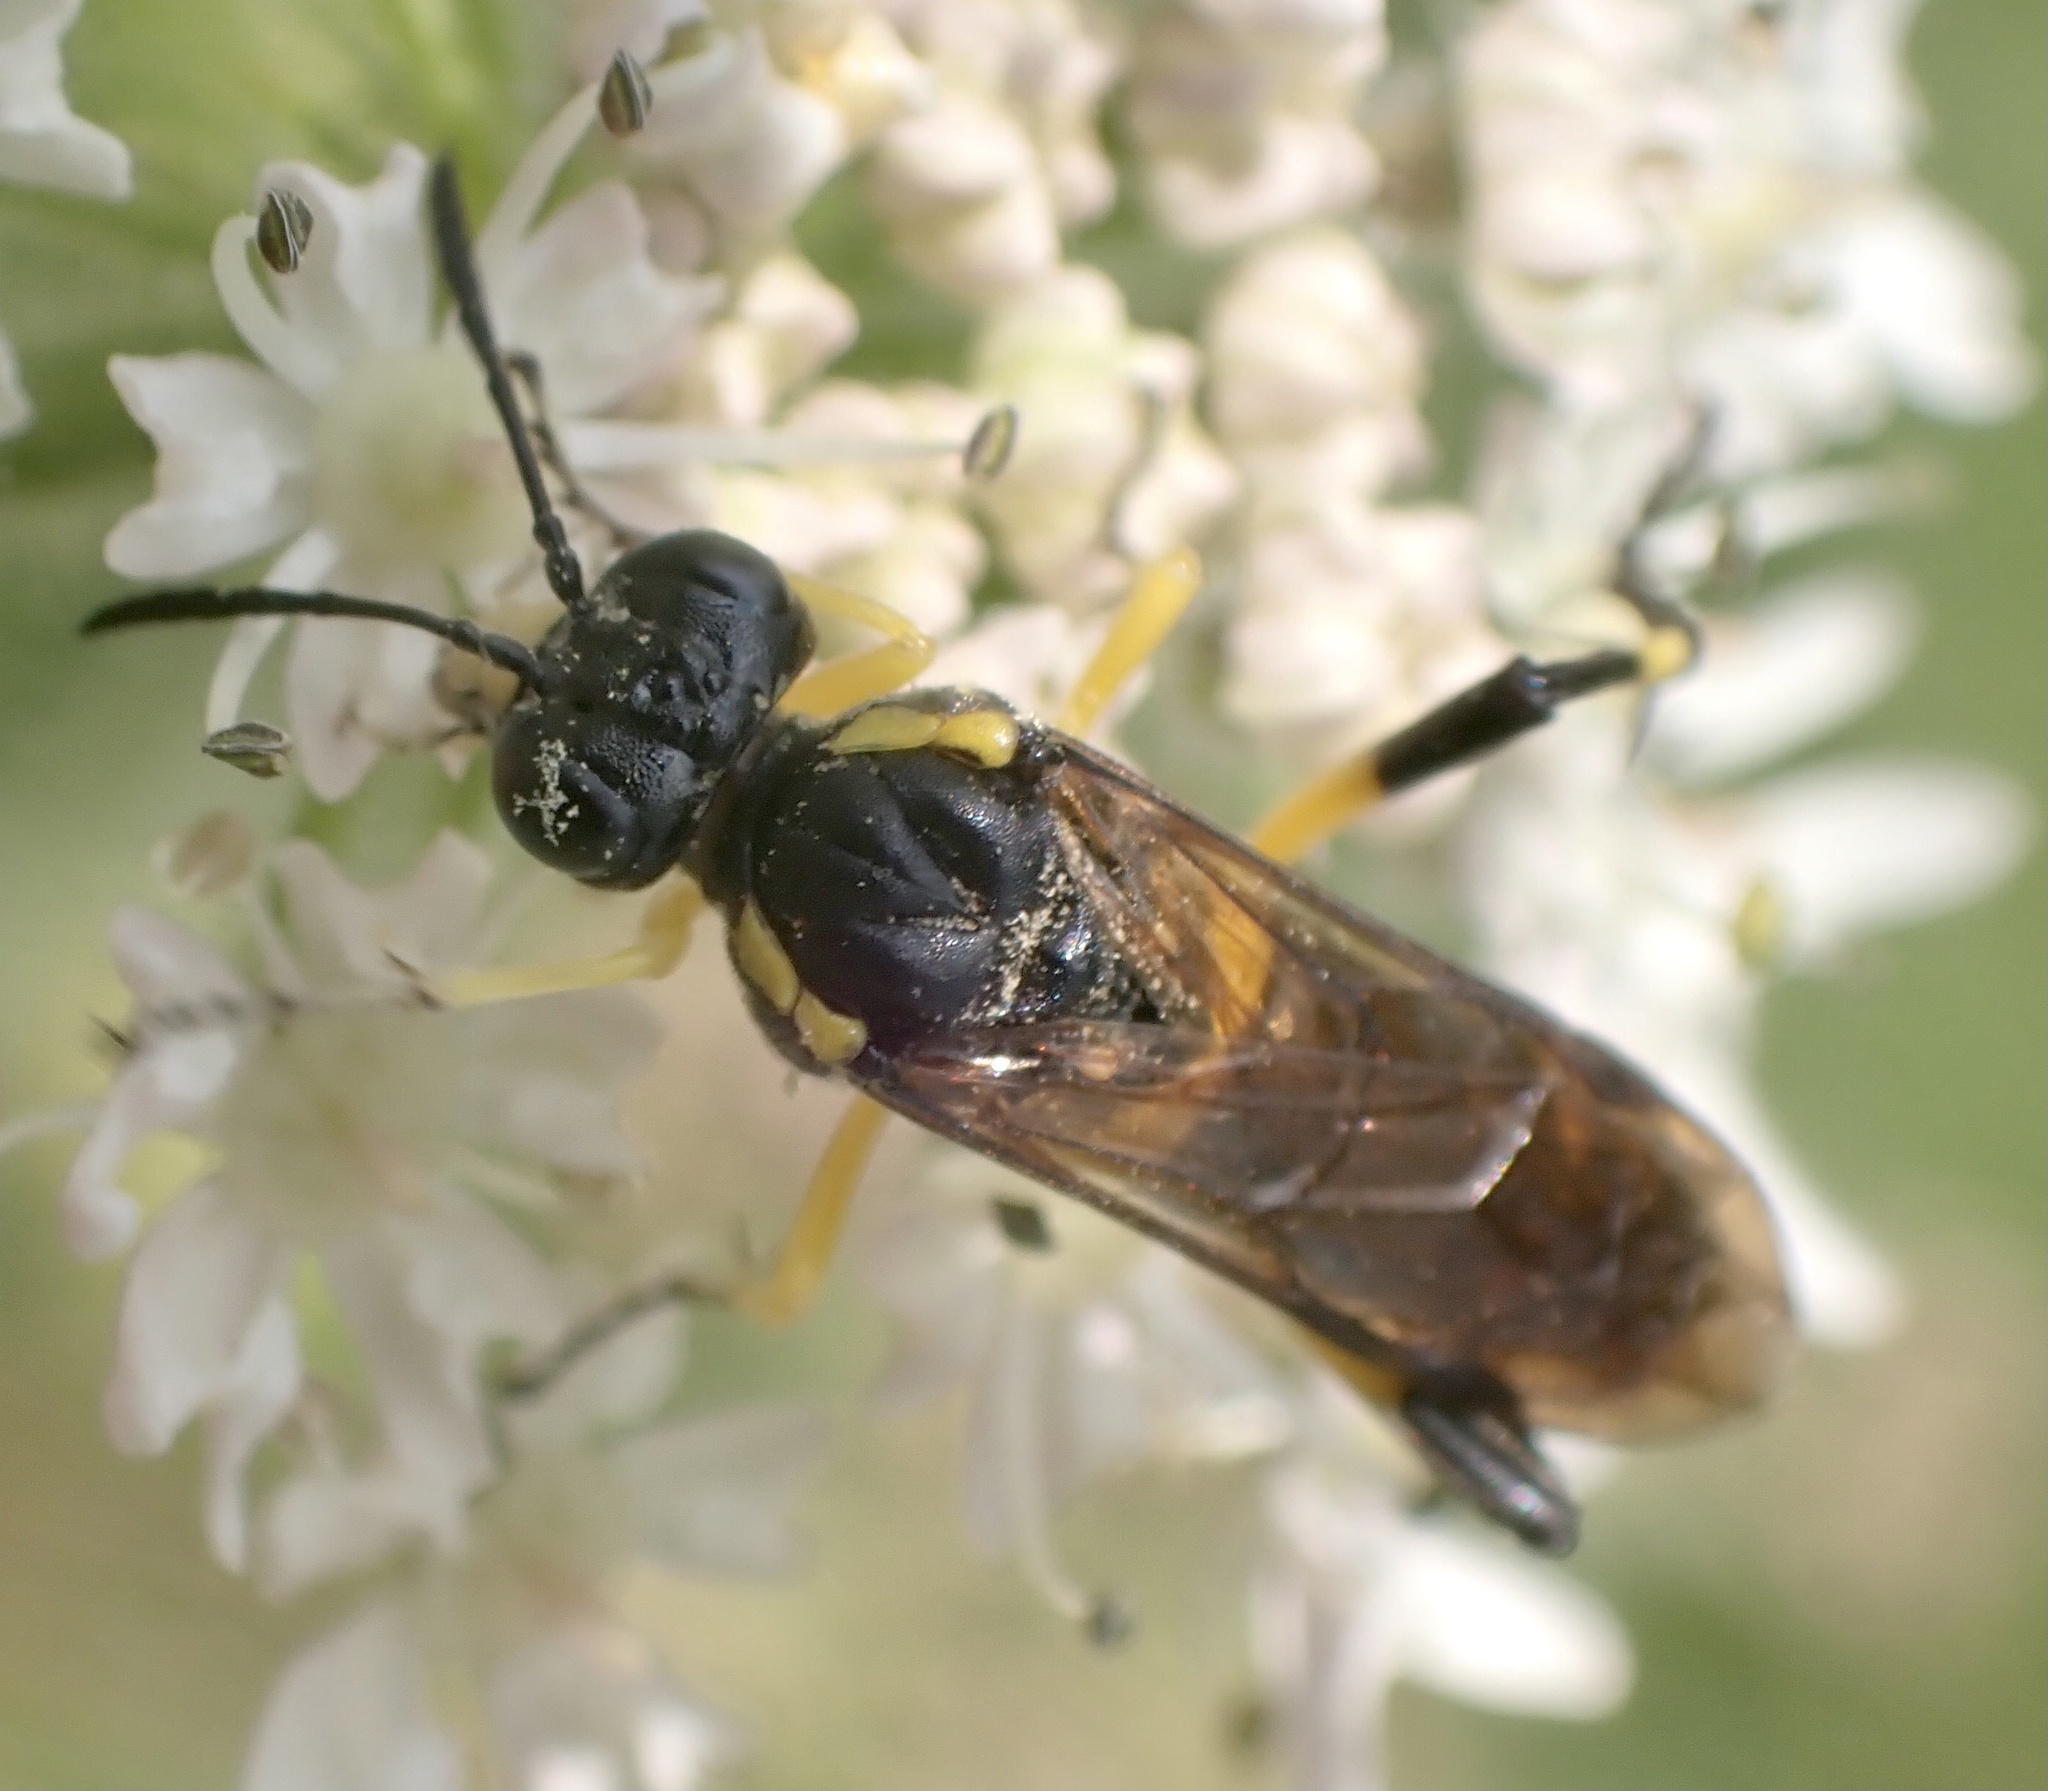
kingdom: Animalia
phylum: Arthropoda
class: Insecta
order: Hymenoptera
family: Tenthredinidae
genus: Macrophya
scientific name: Macrophya montana
